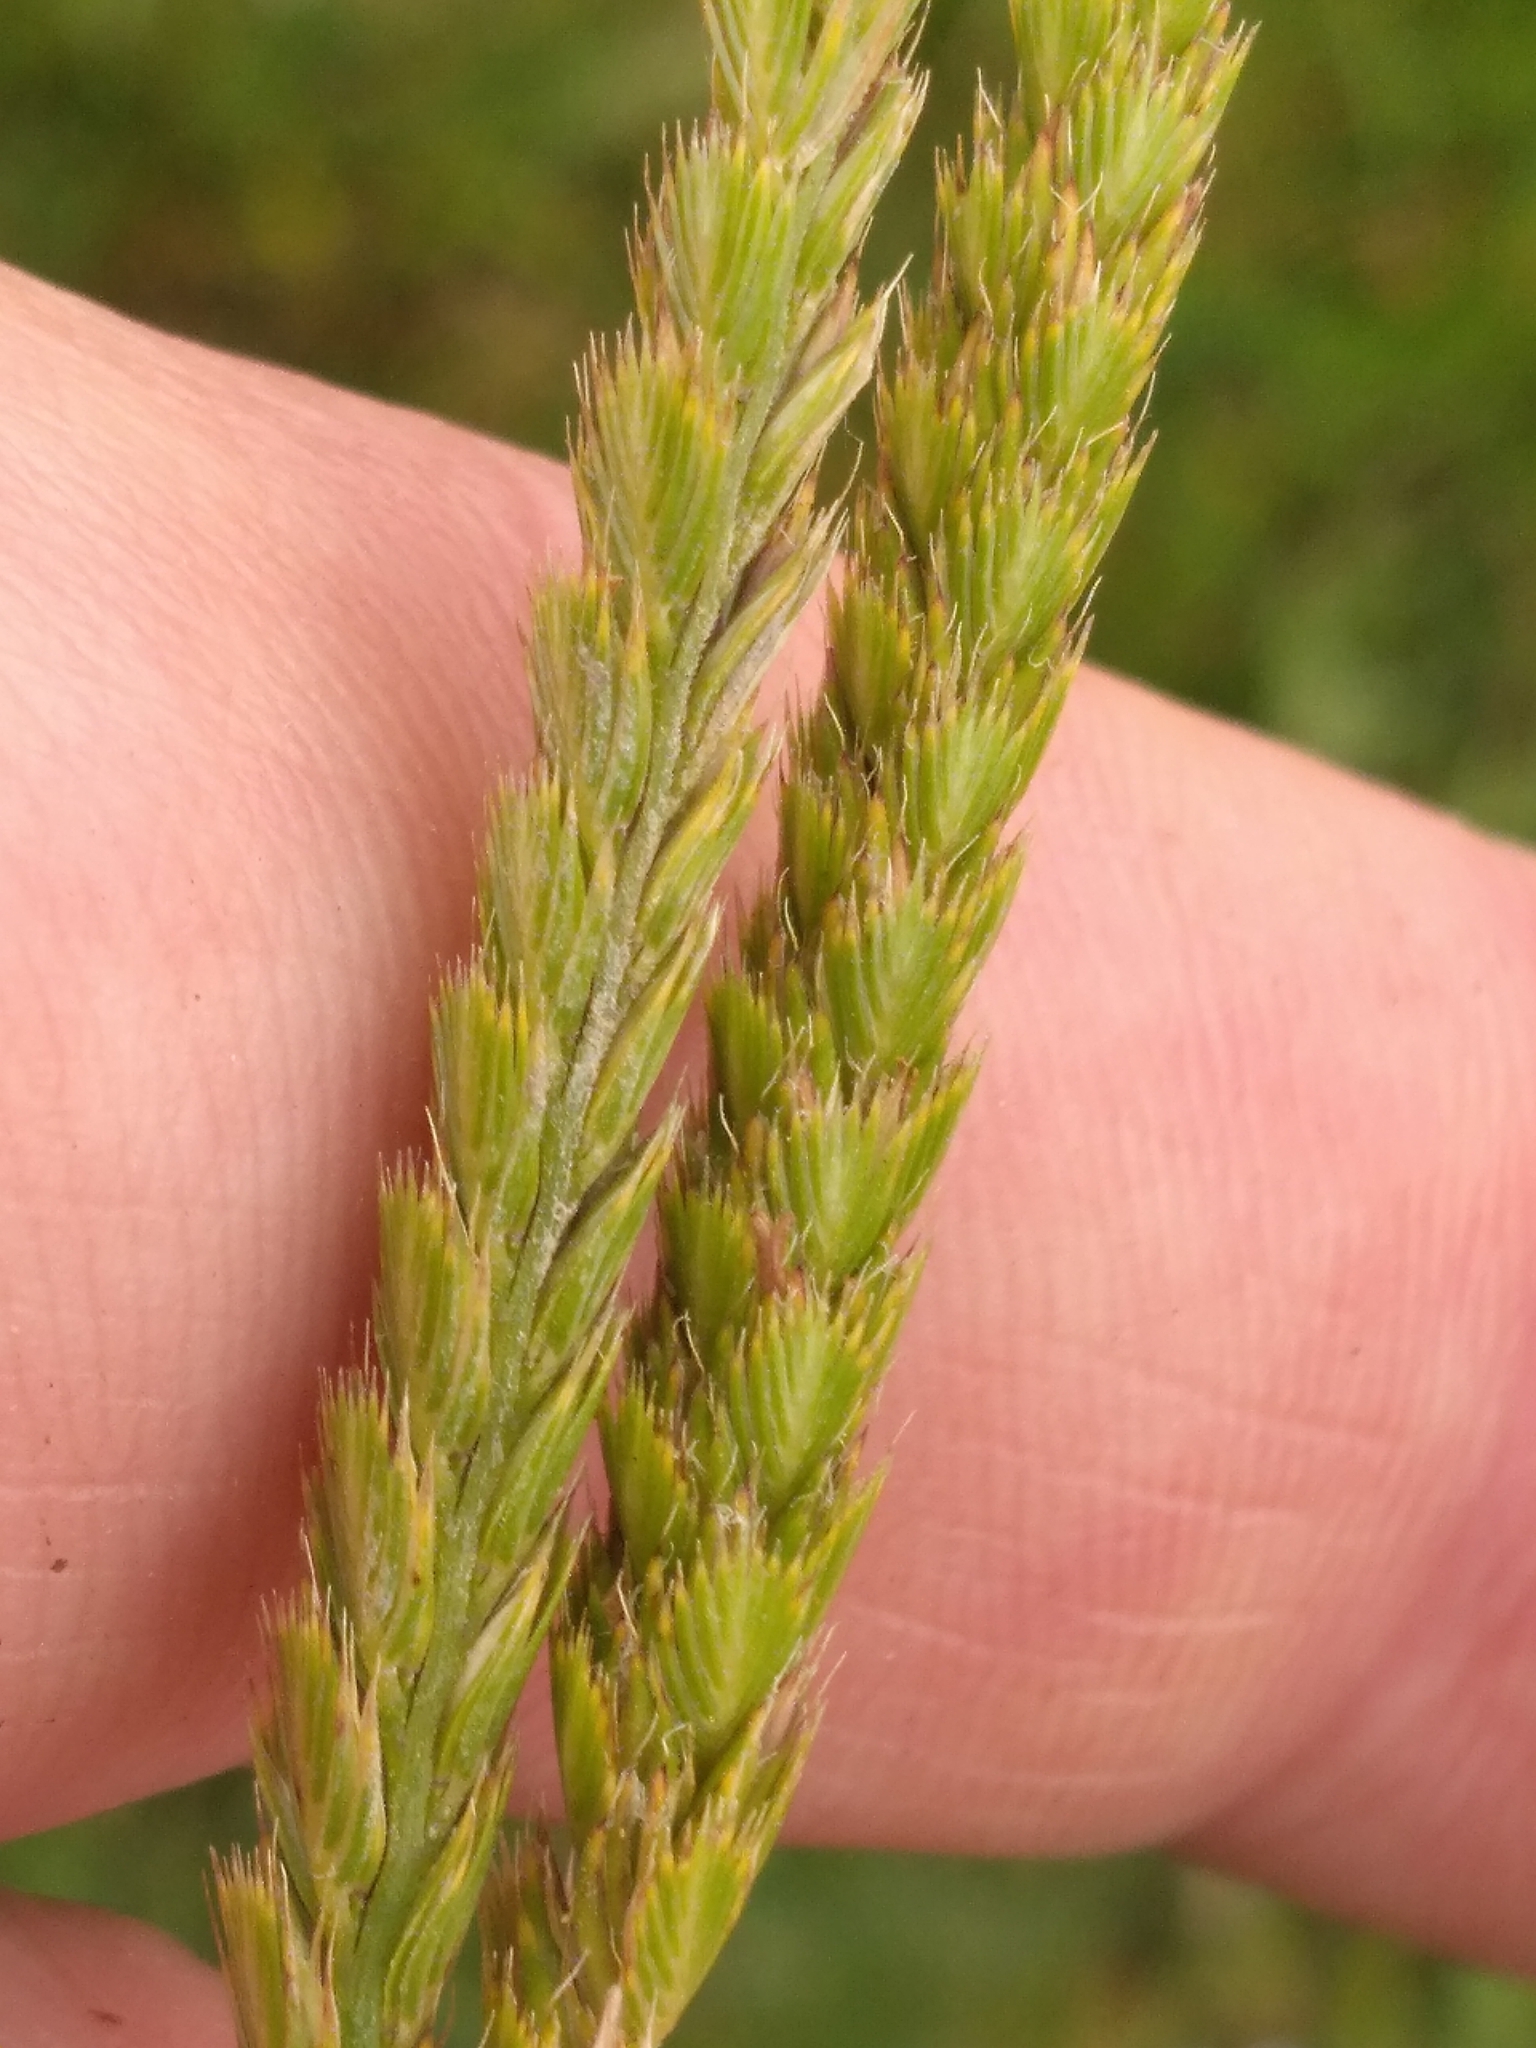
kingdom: Plantae
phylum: Tracheophyta
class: Liliopsida
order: Poales
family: Poaceae
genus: Cynosurus
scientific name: Cynosurus cristatus
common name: Crested dog's-tail
